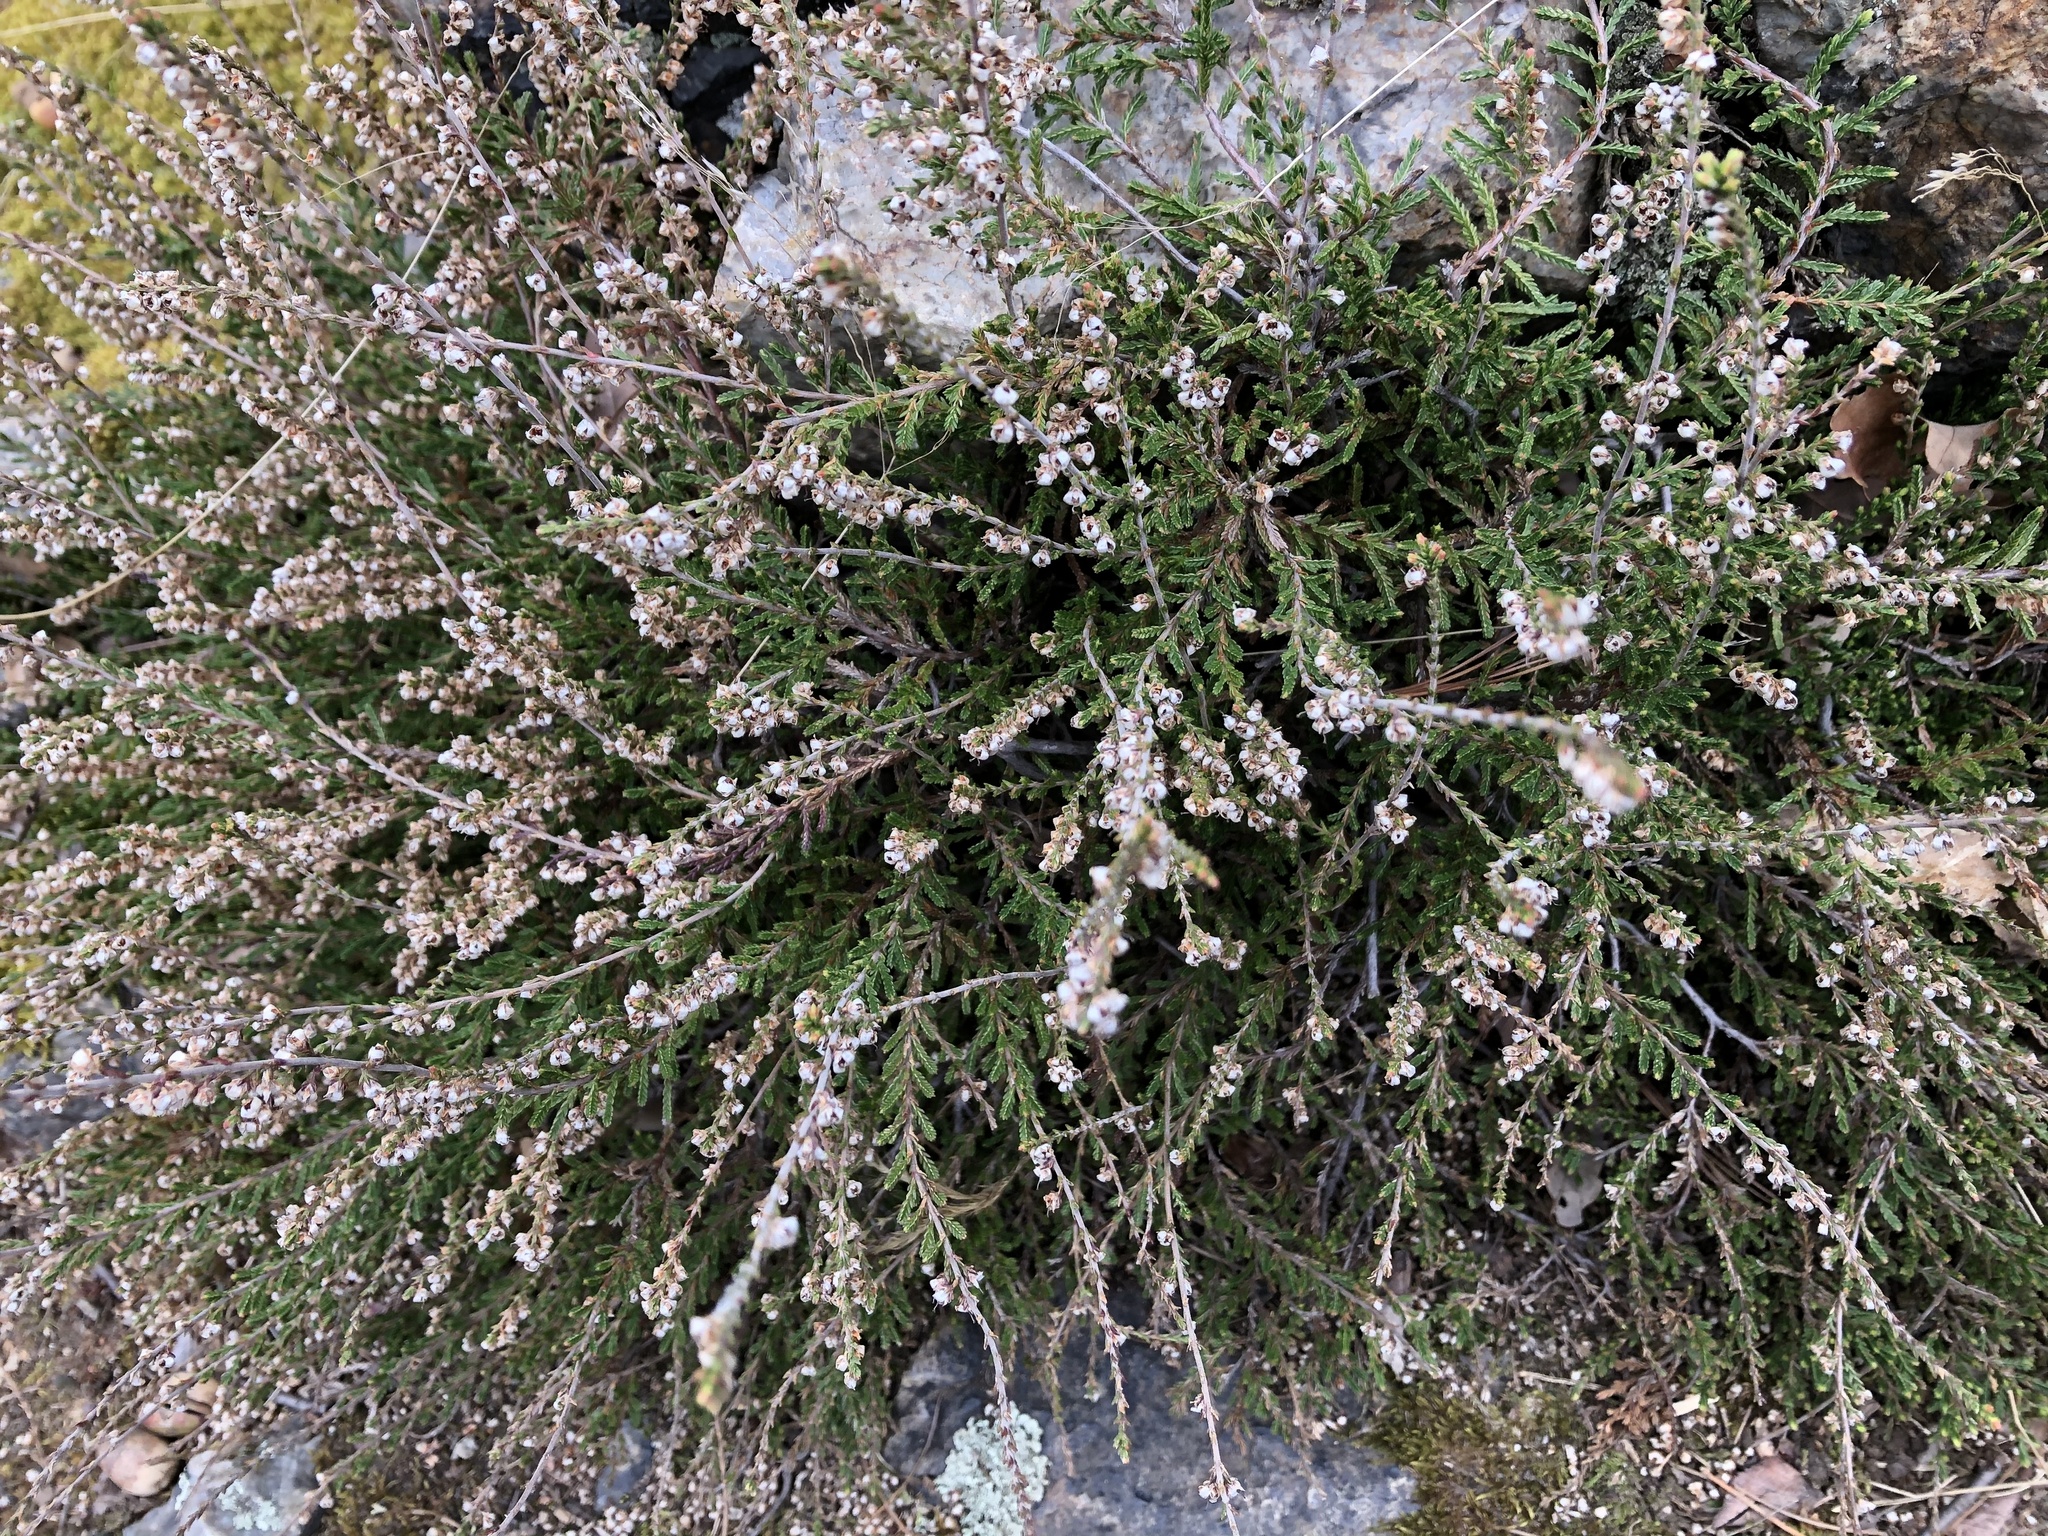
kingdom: Plantae
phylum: Tracheophyta
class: Magnoliopsida
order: Ericales
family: Ericaceae
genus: Calluna
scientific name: Calluna vulgaris
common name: Heather
